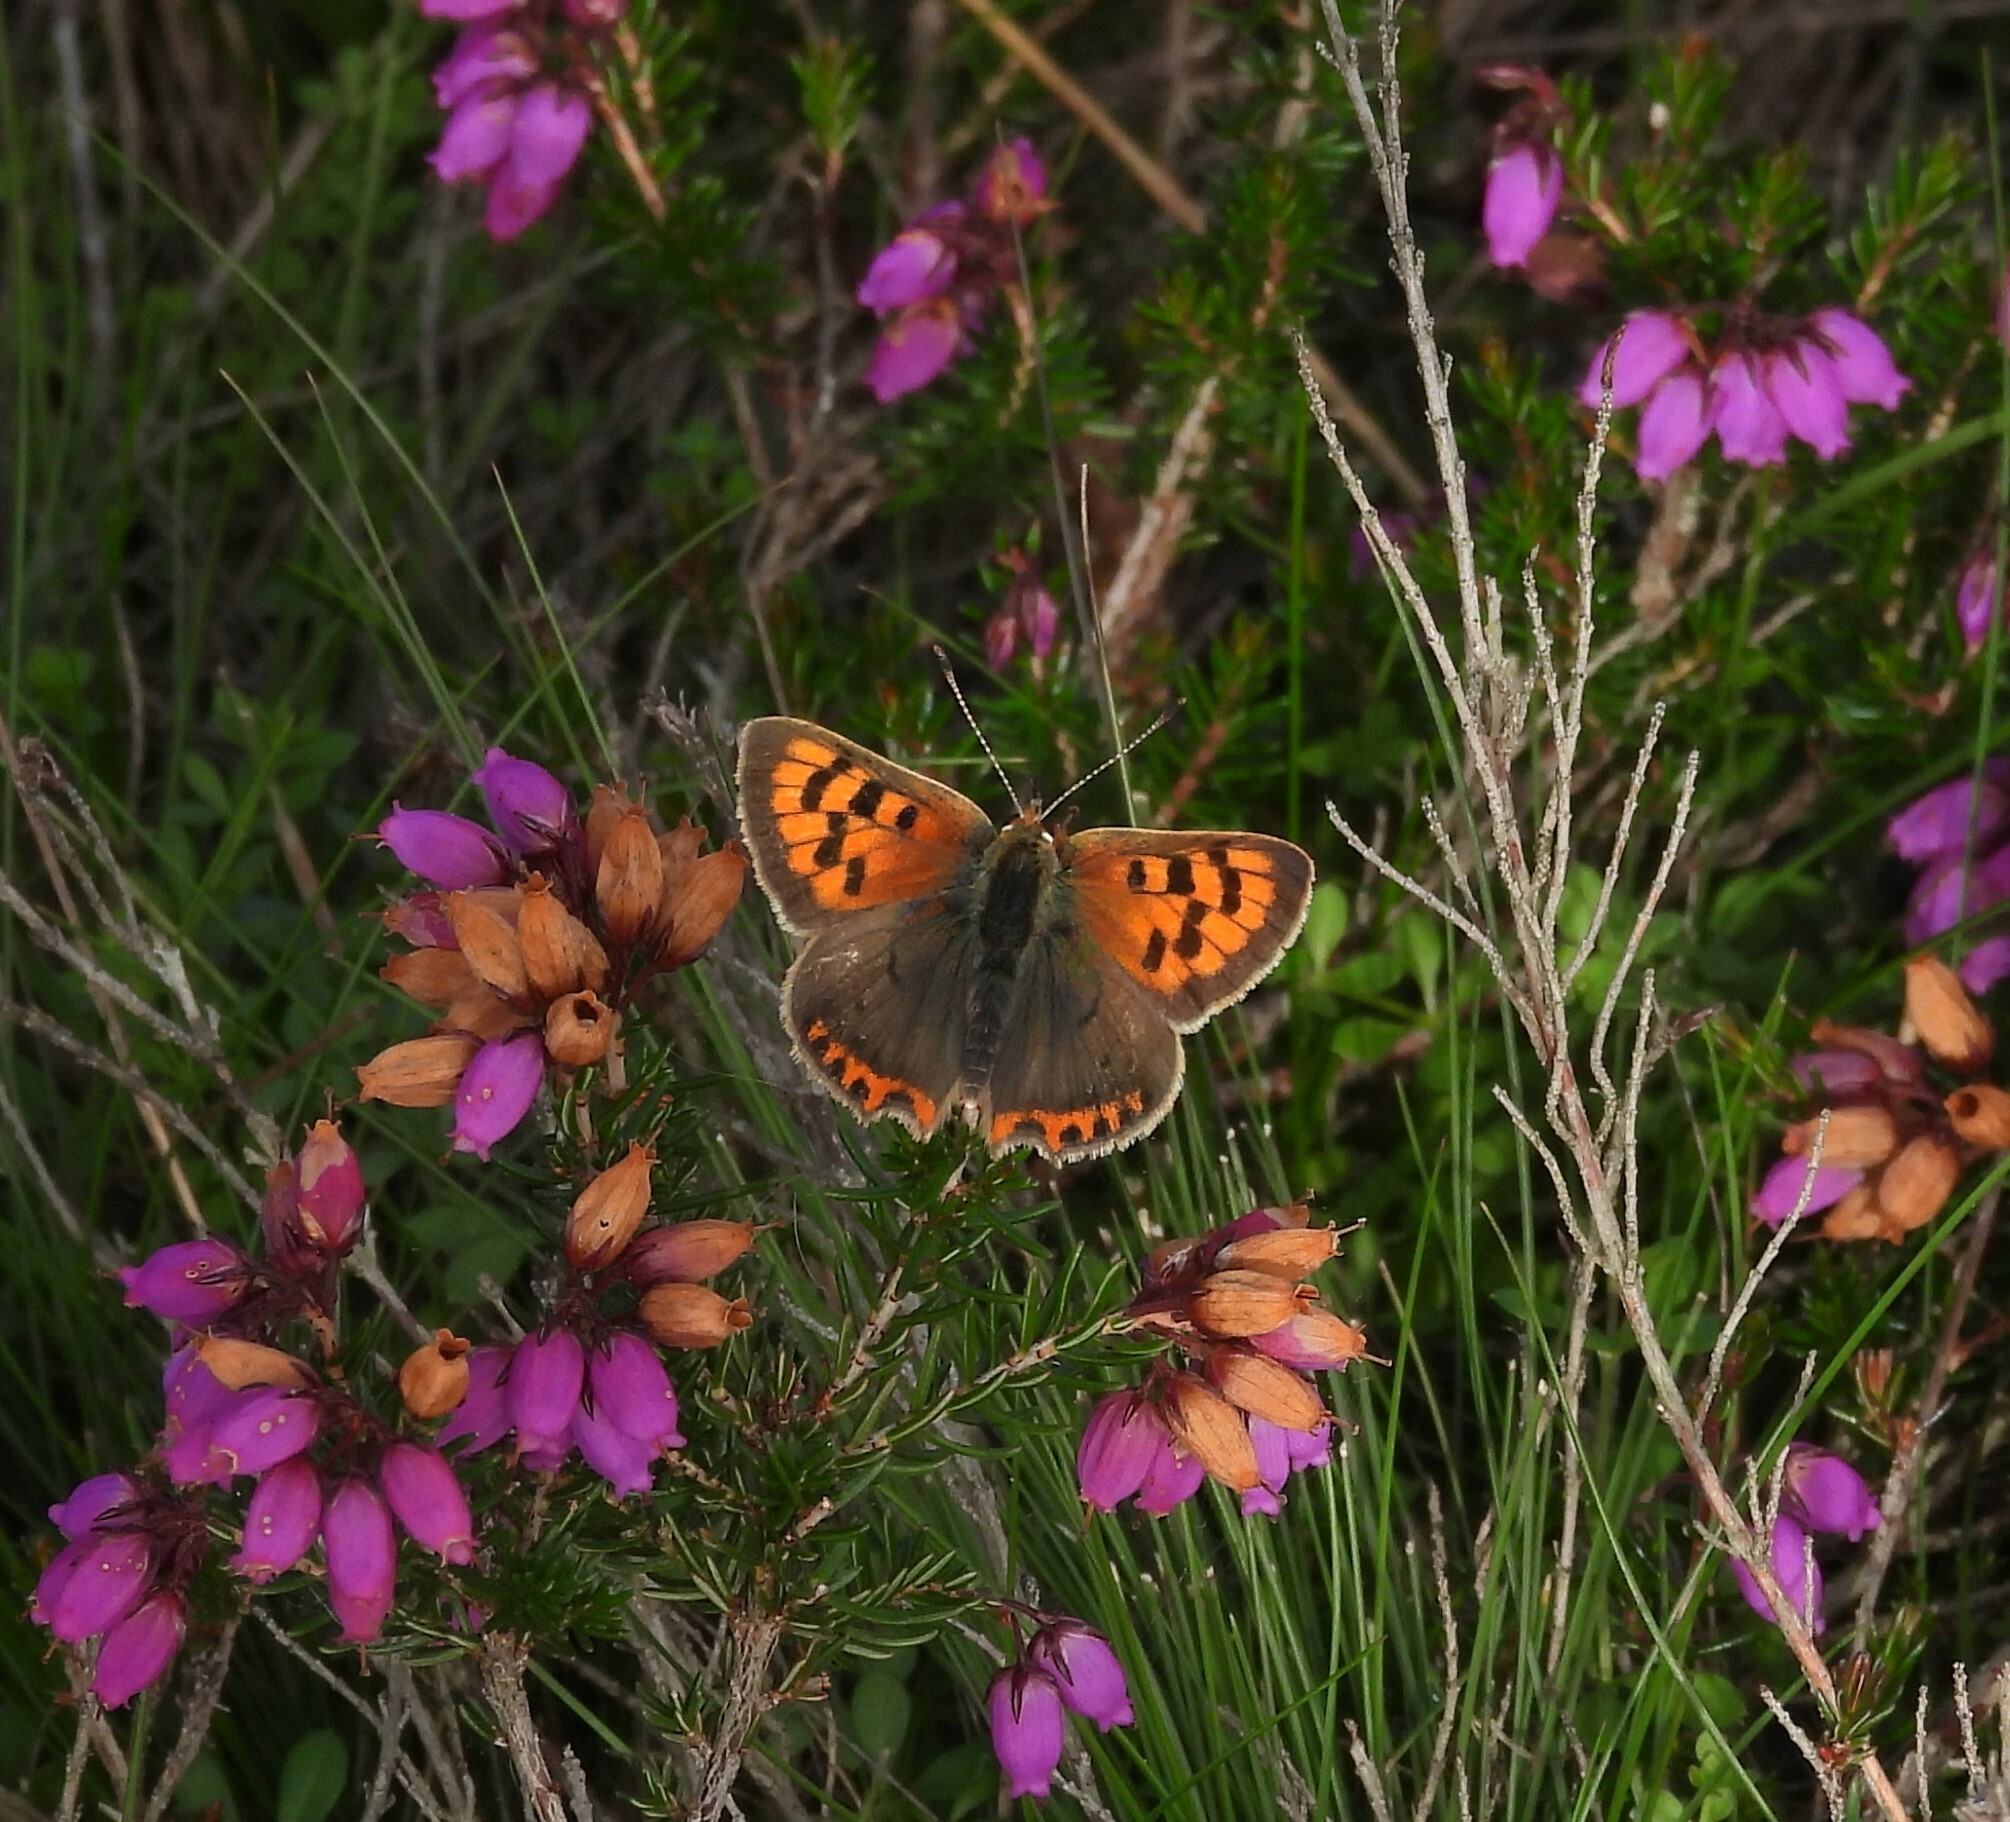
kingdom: Animalia
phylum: Arthropoda
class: Insecta
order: Lepidoptera
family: Lycaenidae
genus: Lycaena
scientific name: Lycaena phlaeas
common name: Small copper
